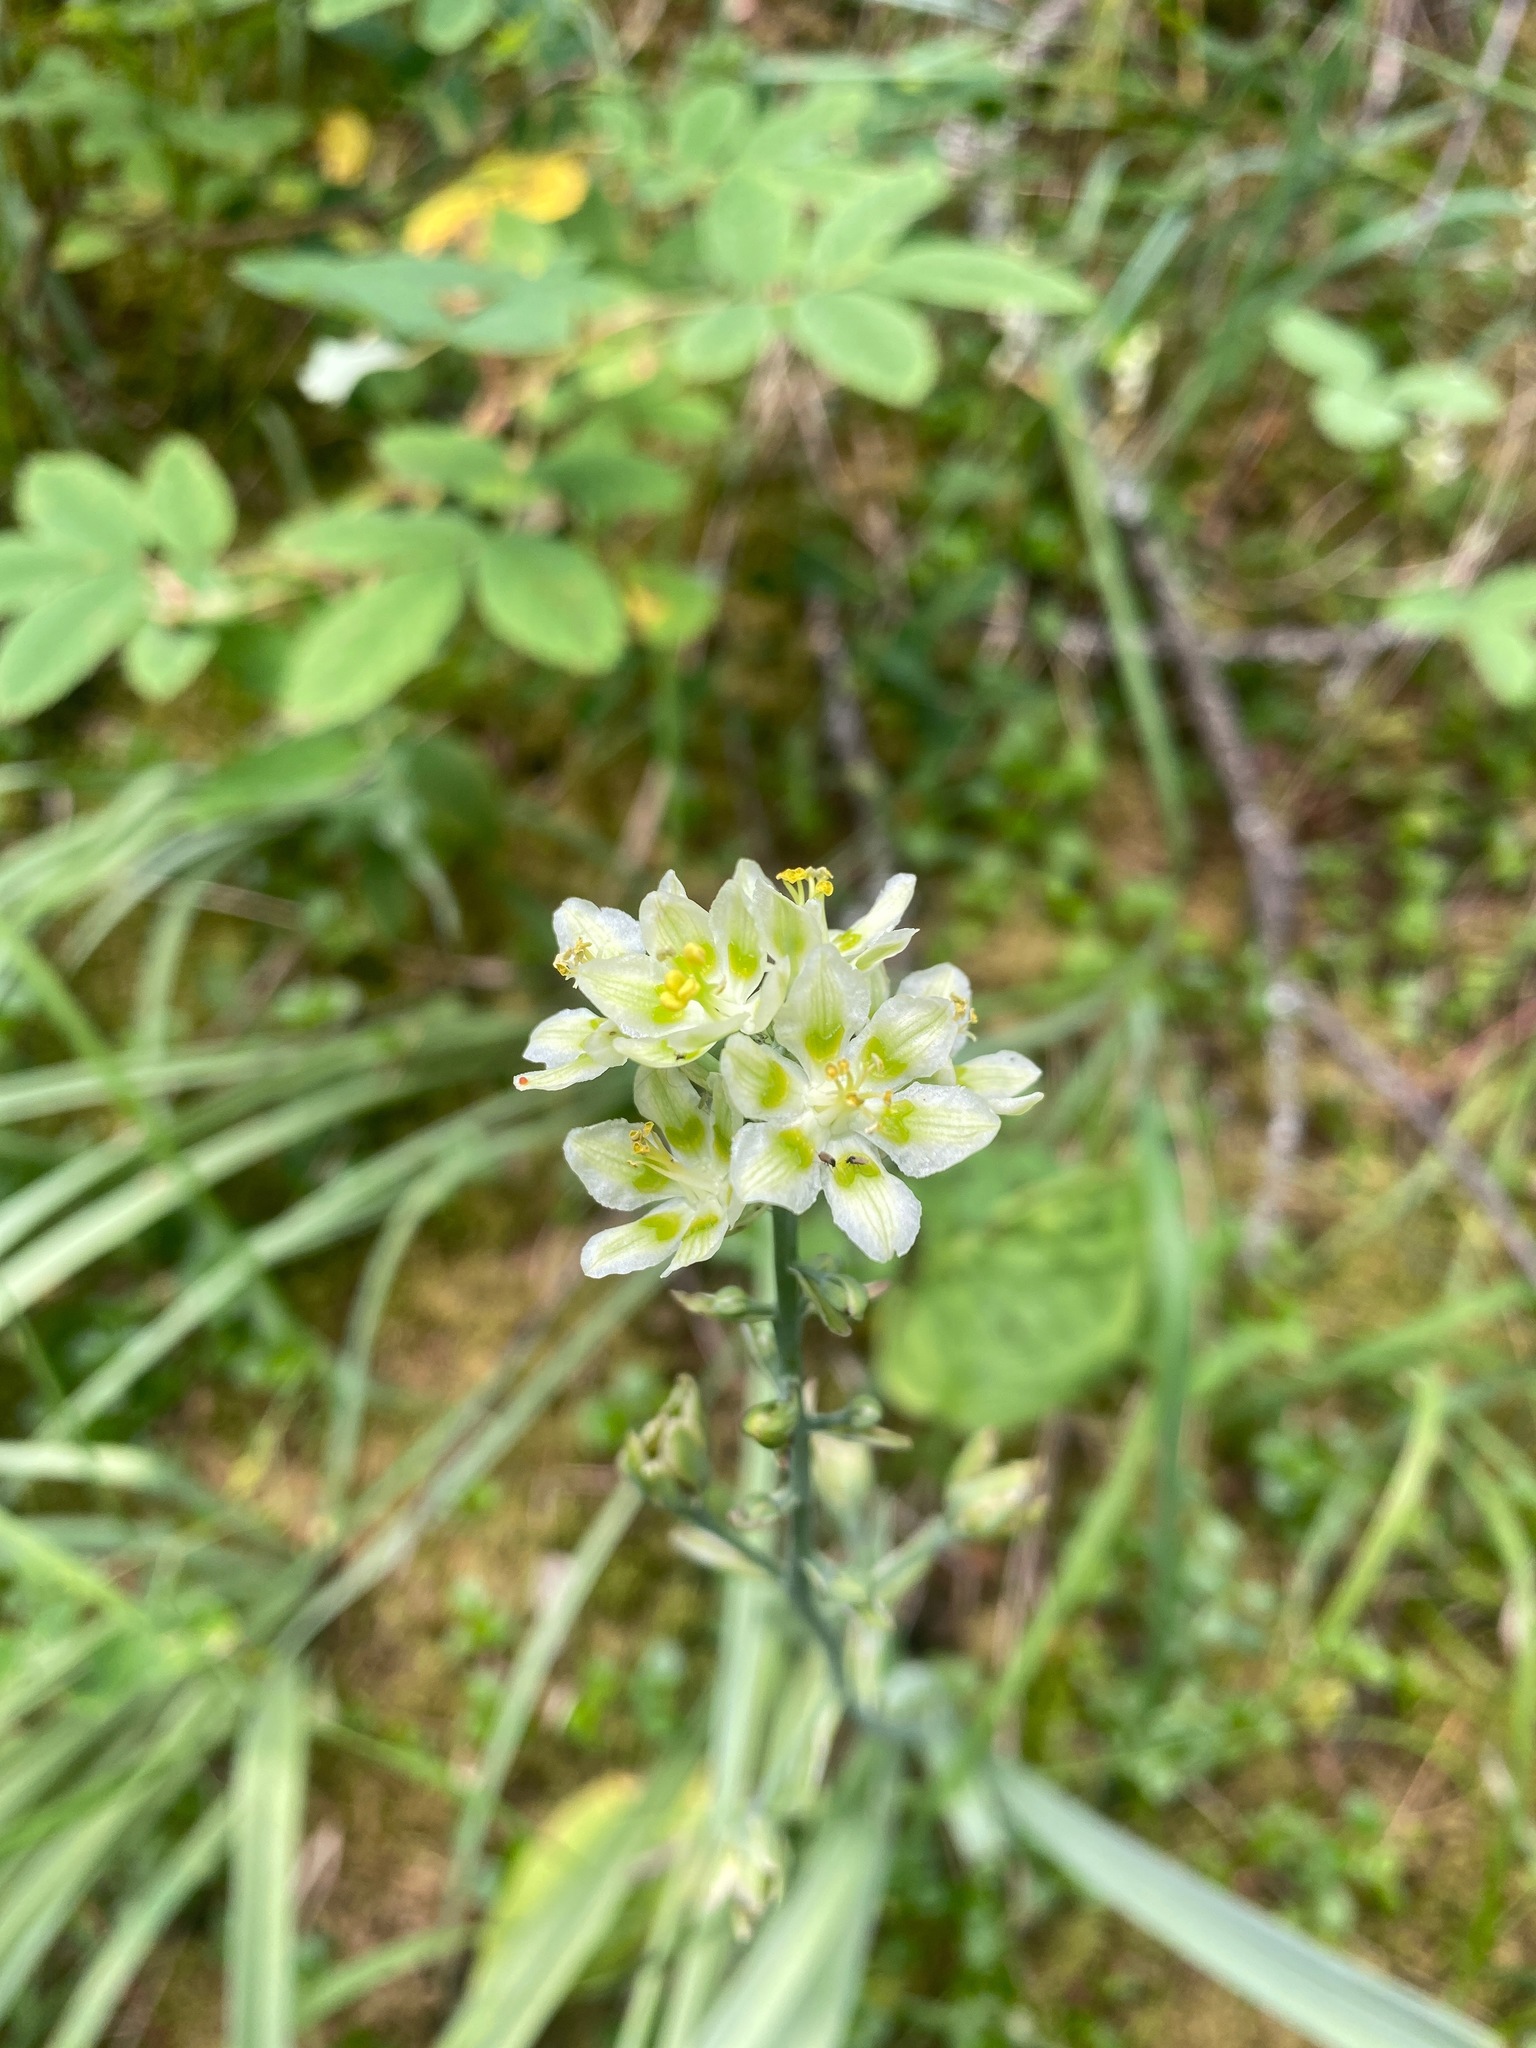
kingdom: Plantae
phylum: Tracheophyta
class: Liliopsida
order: Liliales
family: Melanthiaceae
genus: Anticlea
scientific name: Anticlea elegans
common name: Mountain death camas
